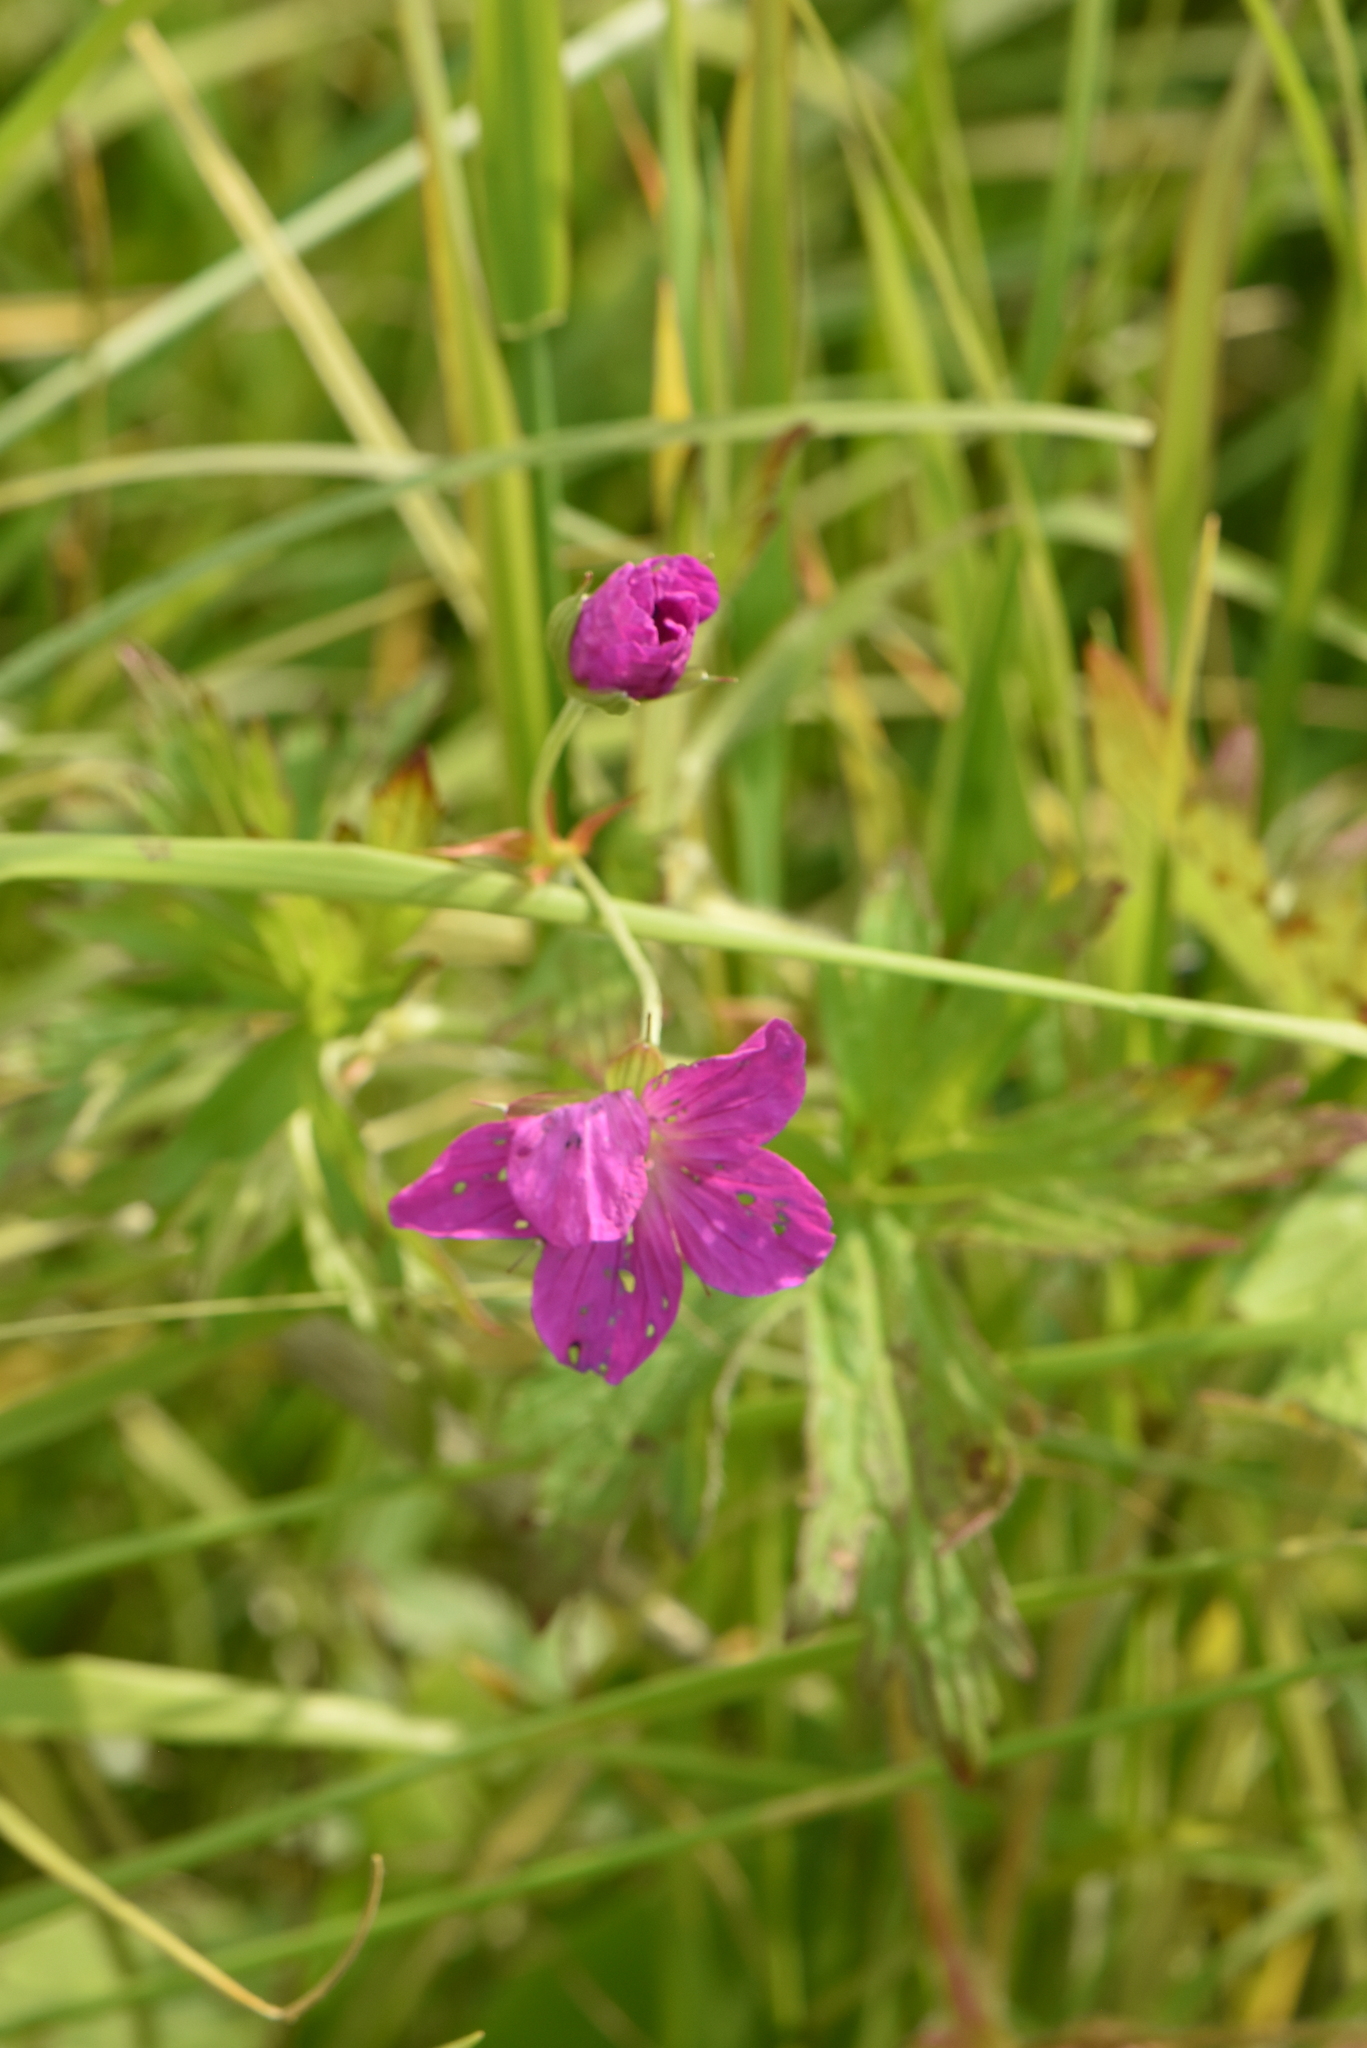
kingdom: Plantae
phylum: Tracheophyta
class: Magnoliopsida
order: Geraniales
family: Geraniaceae
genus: Geranium
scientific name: Geranium palustre
